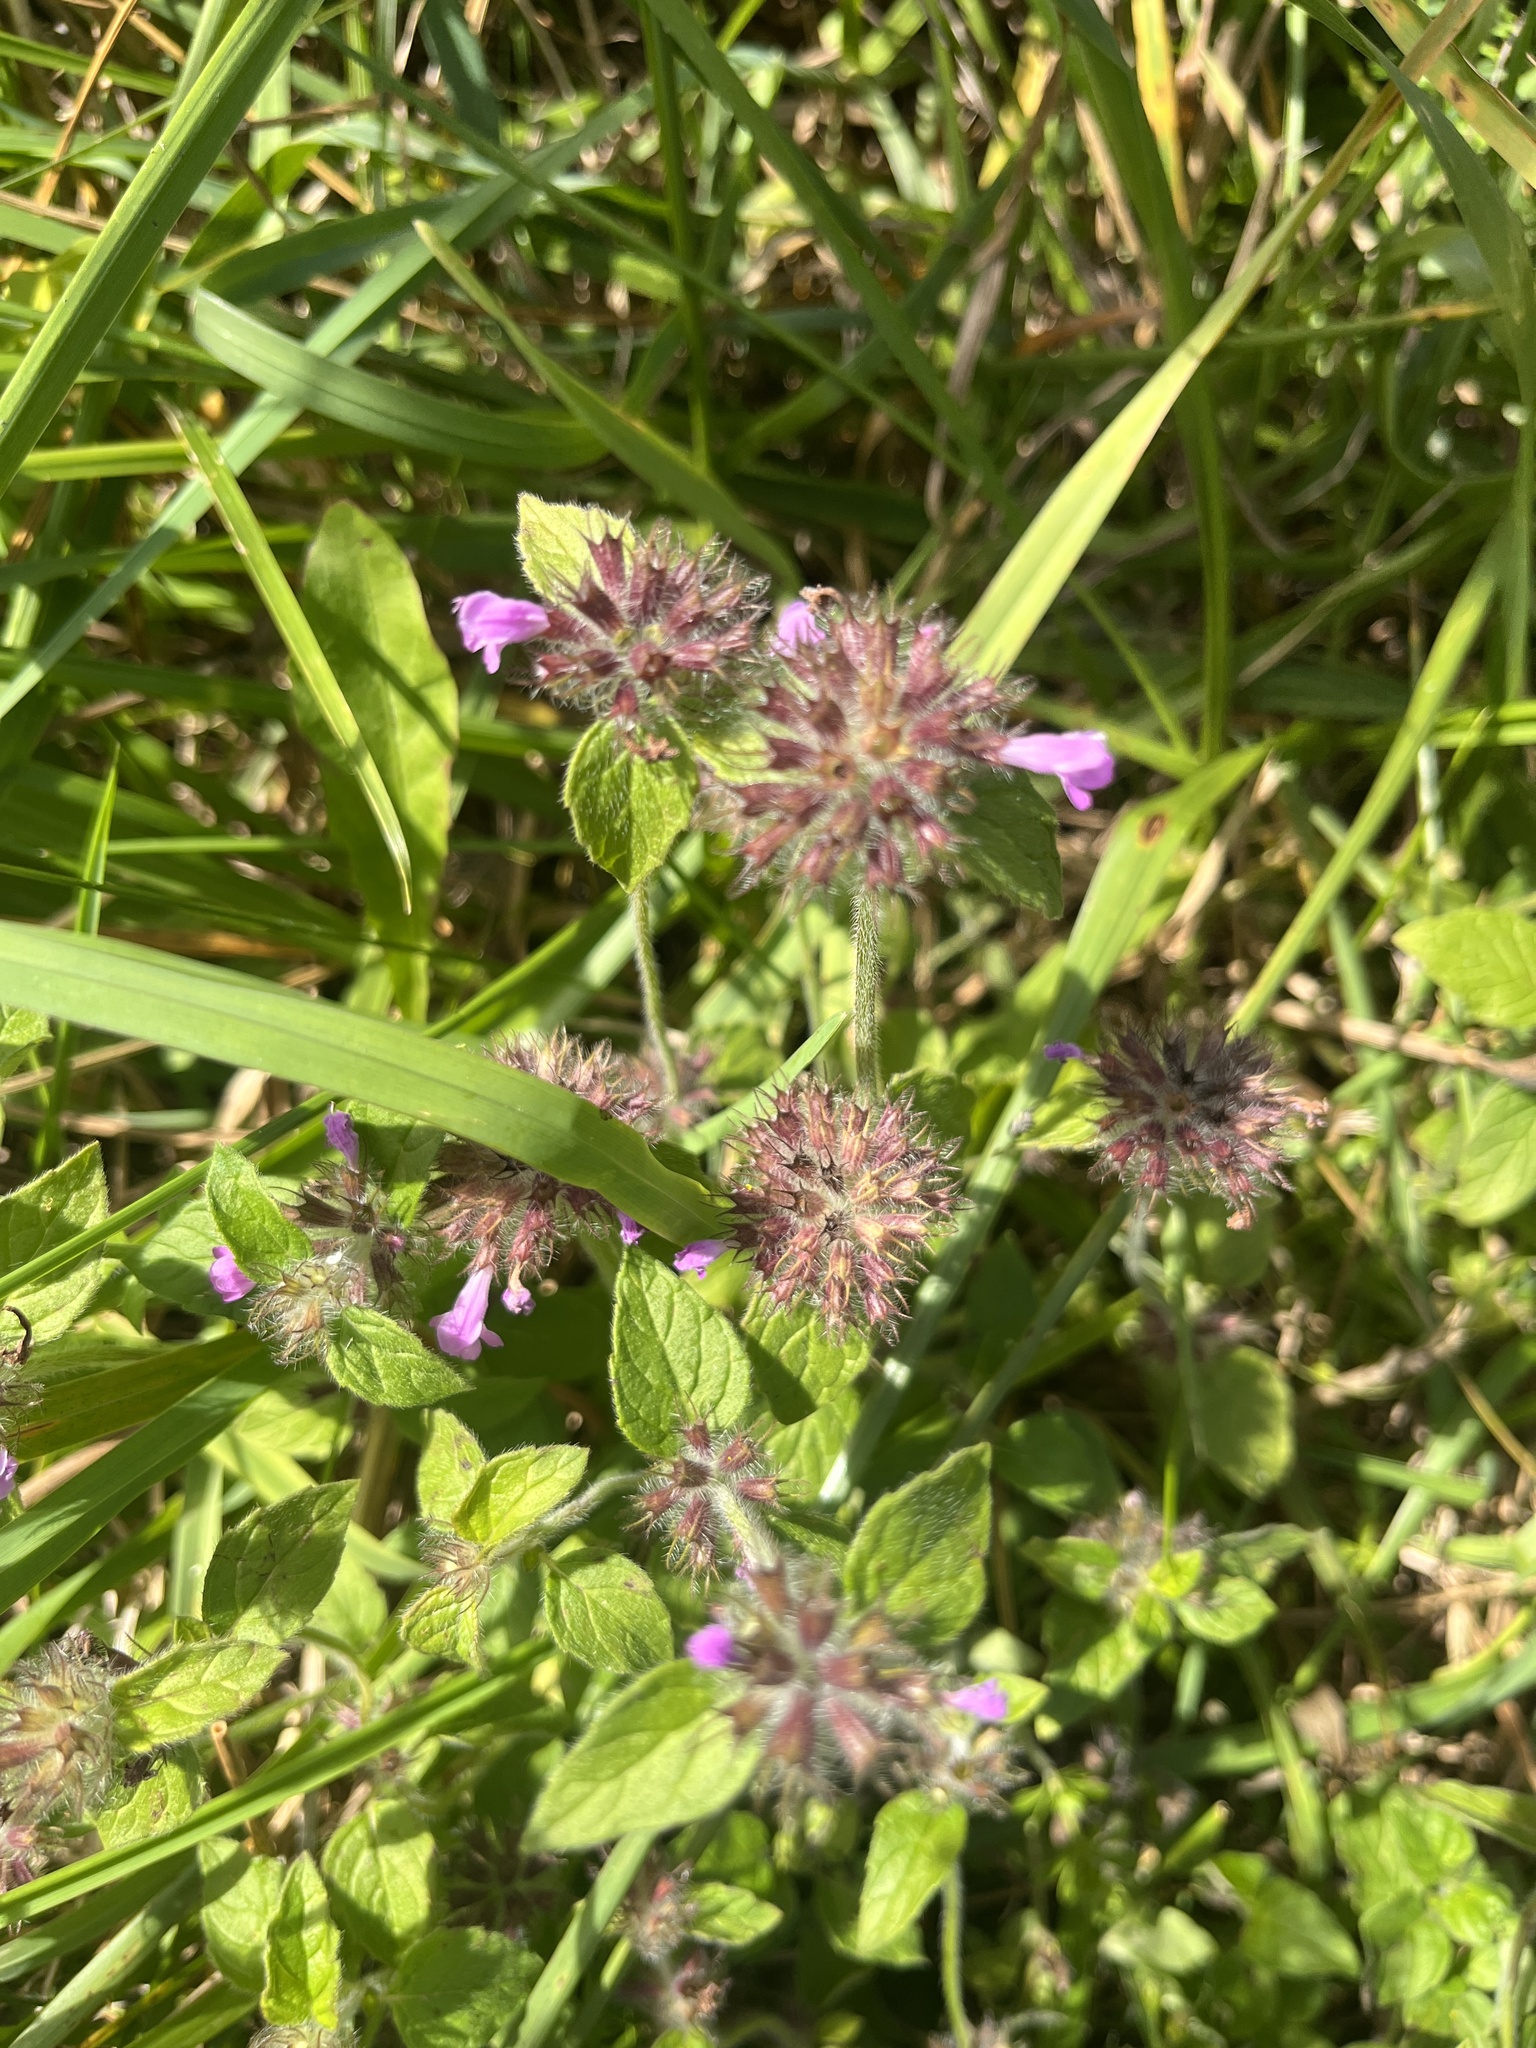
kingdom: Plantae
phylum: Tracheophyta
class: Magnoliopsida
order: Lamiales
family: Lamiaceae
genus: Clinopodium
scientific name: Clinopodium vulgare
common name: Wild basil
